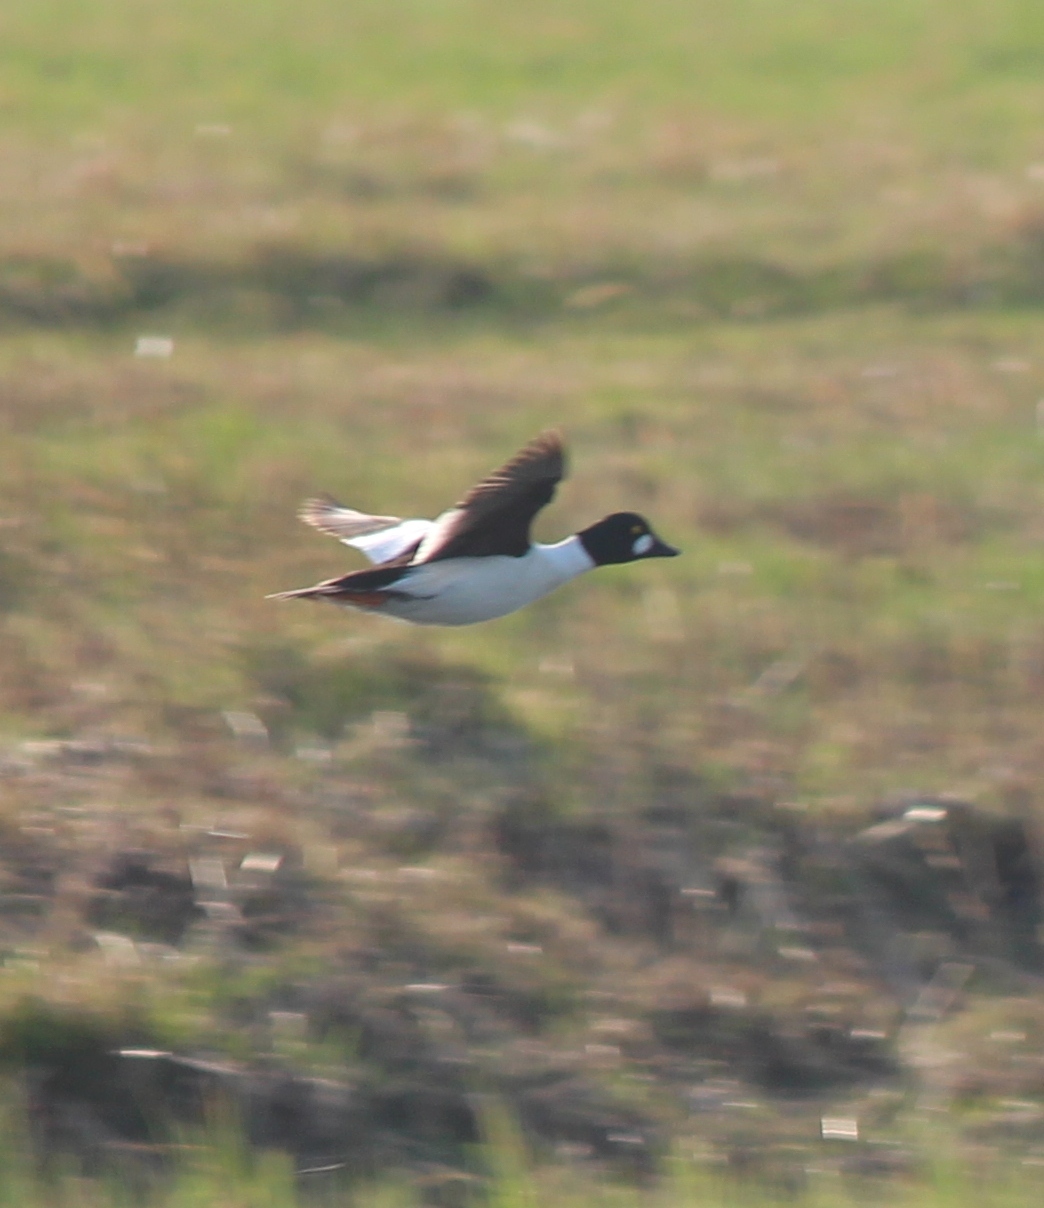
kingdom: Animalia
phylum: Chordata
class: Aves
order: Anseriformes
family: Anatidae
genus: Bucephala
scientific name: Bucephala clangula
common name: Common goldeneye
